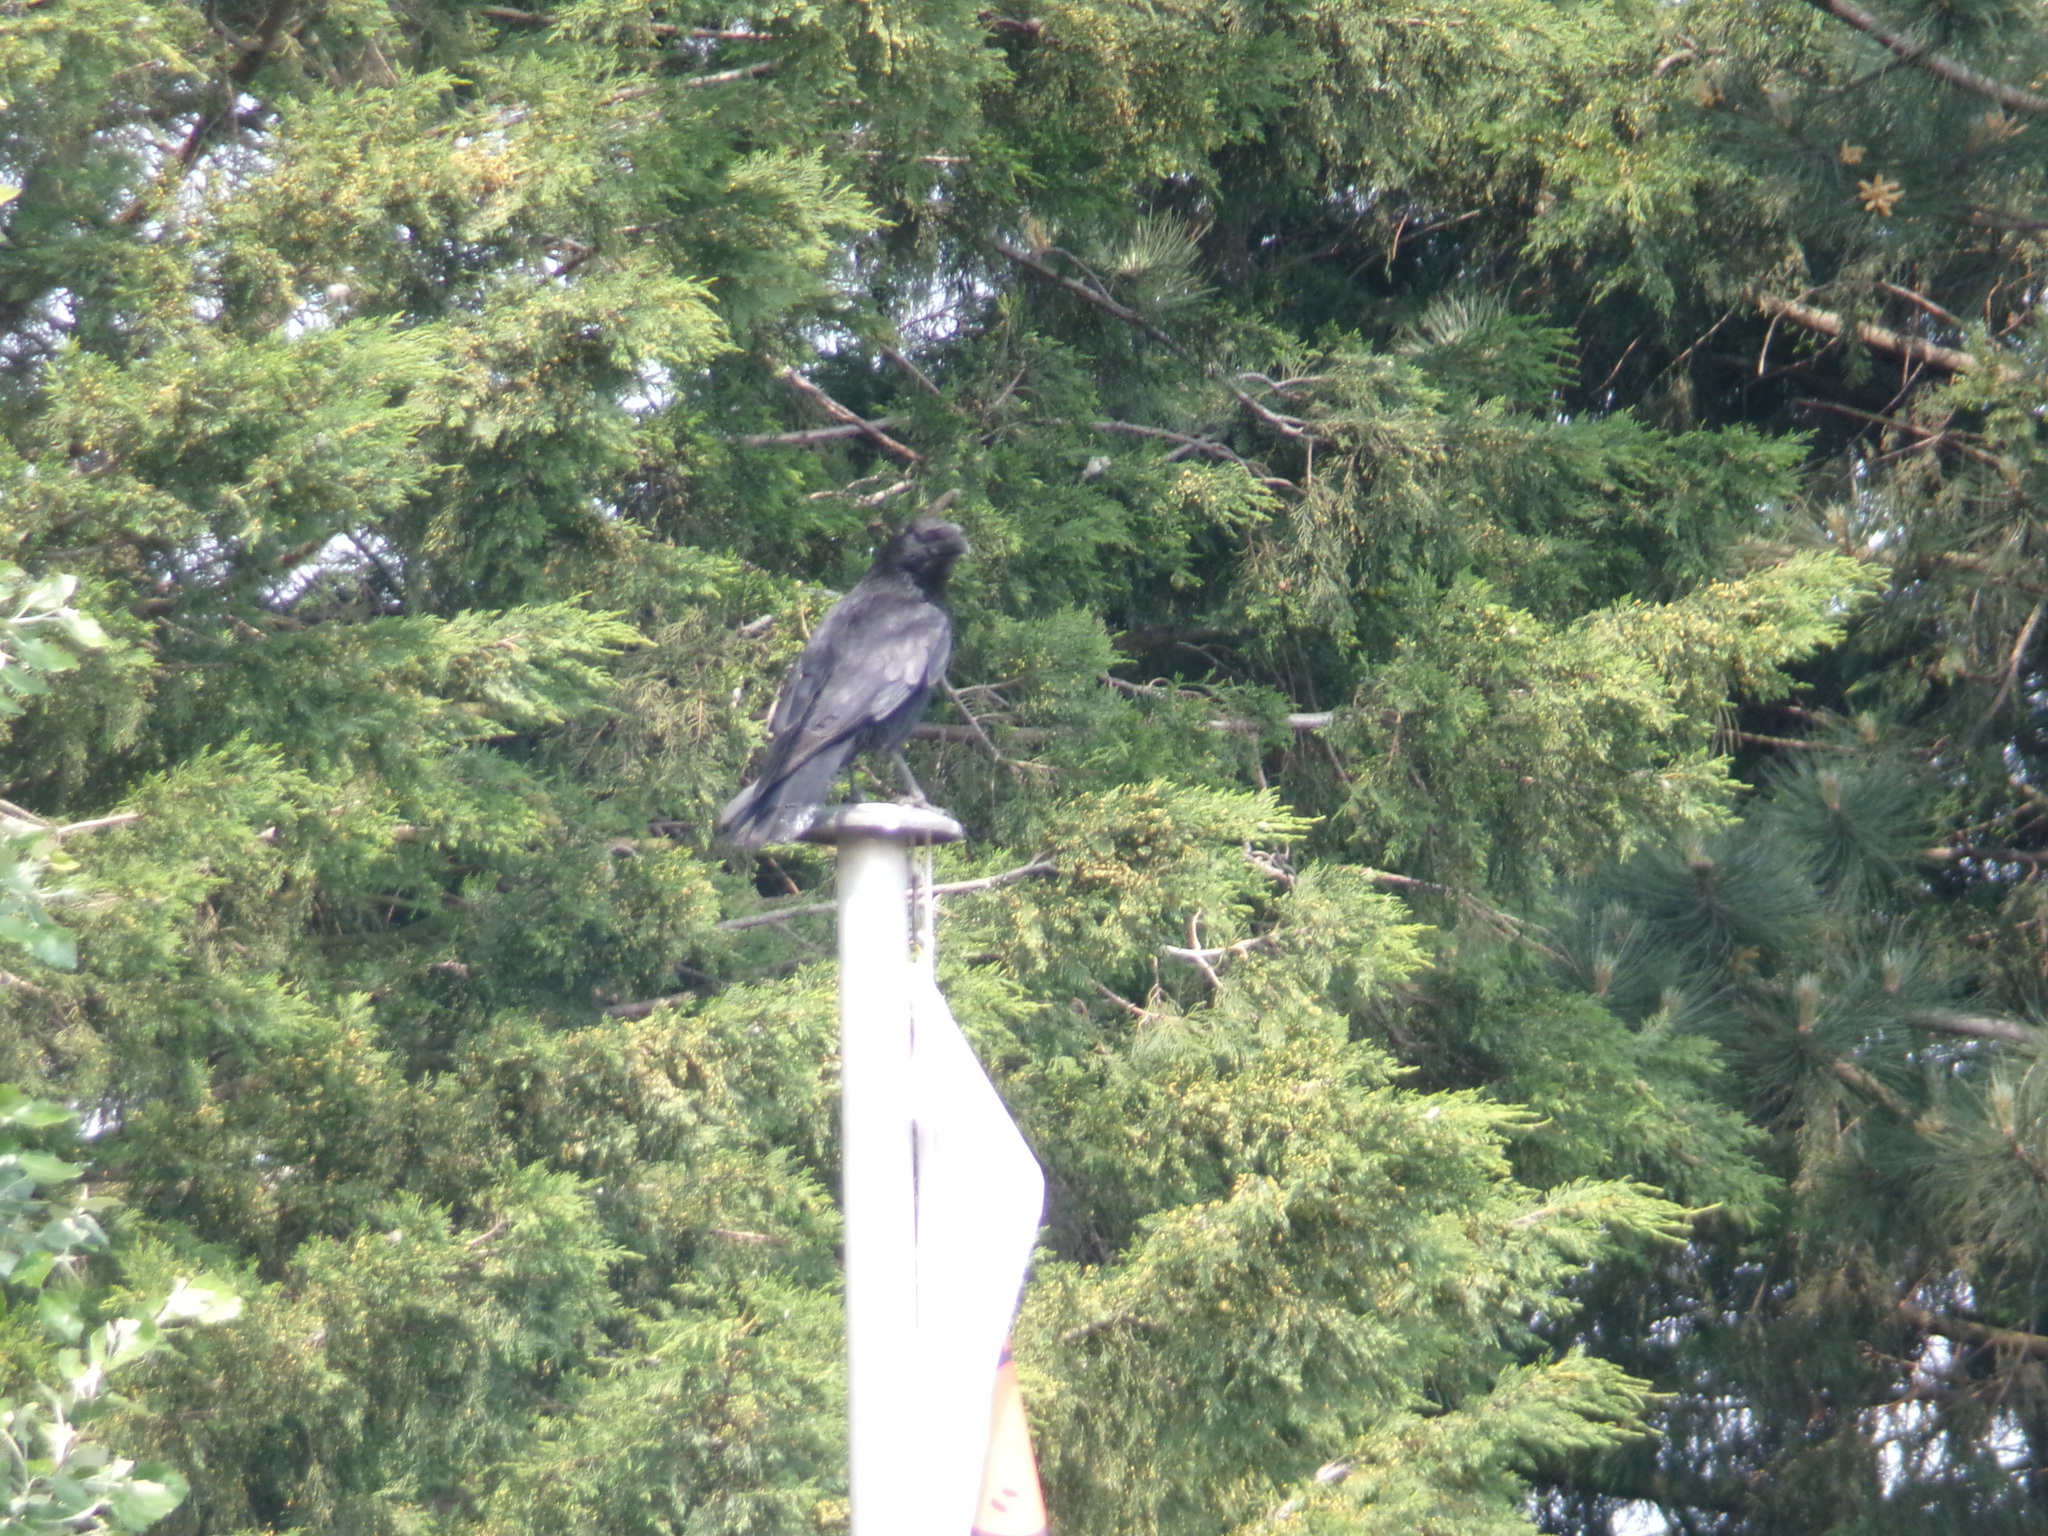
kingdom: Animalia
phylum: Chordata
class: Aves
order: Passeriformes
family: Corvidae
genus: Corvus
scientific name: Corvus corone
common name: Carrion crow
